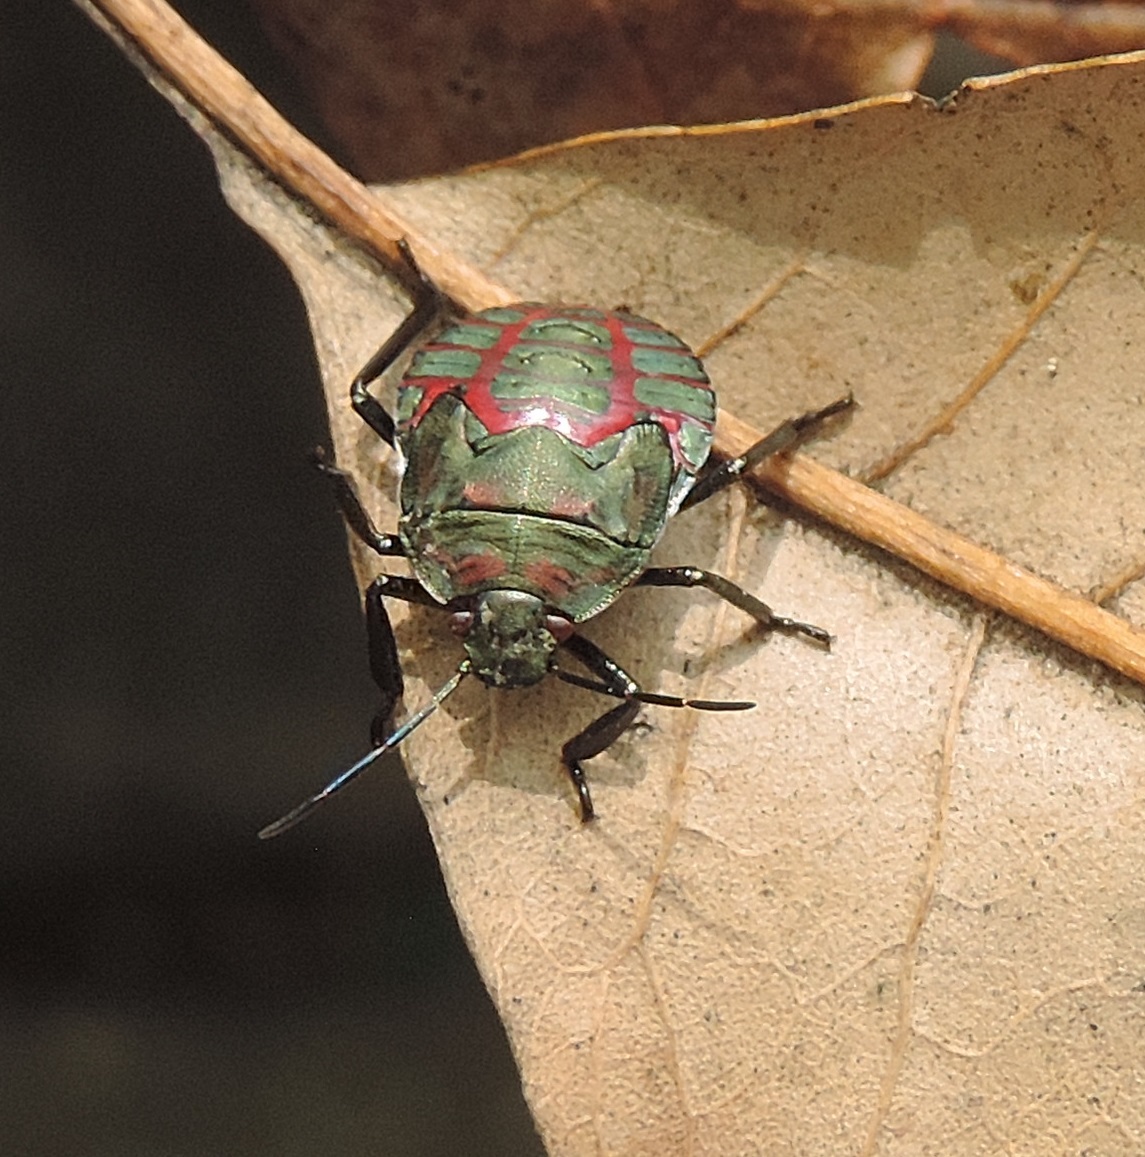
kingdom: Animalia
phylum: Arthropoda
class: Insecta
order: Hemiptera
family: Pentatomidae
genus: Pellaea
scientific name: Pellaea stictica
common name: Stink bug
